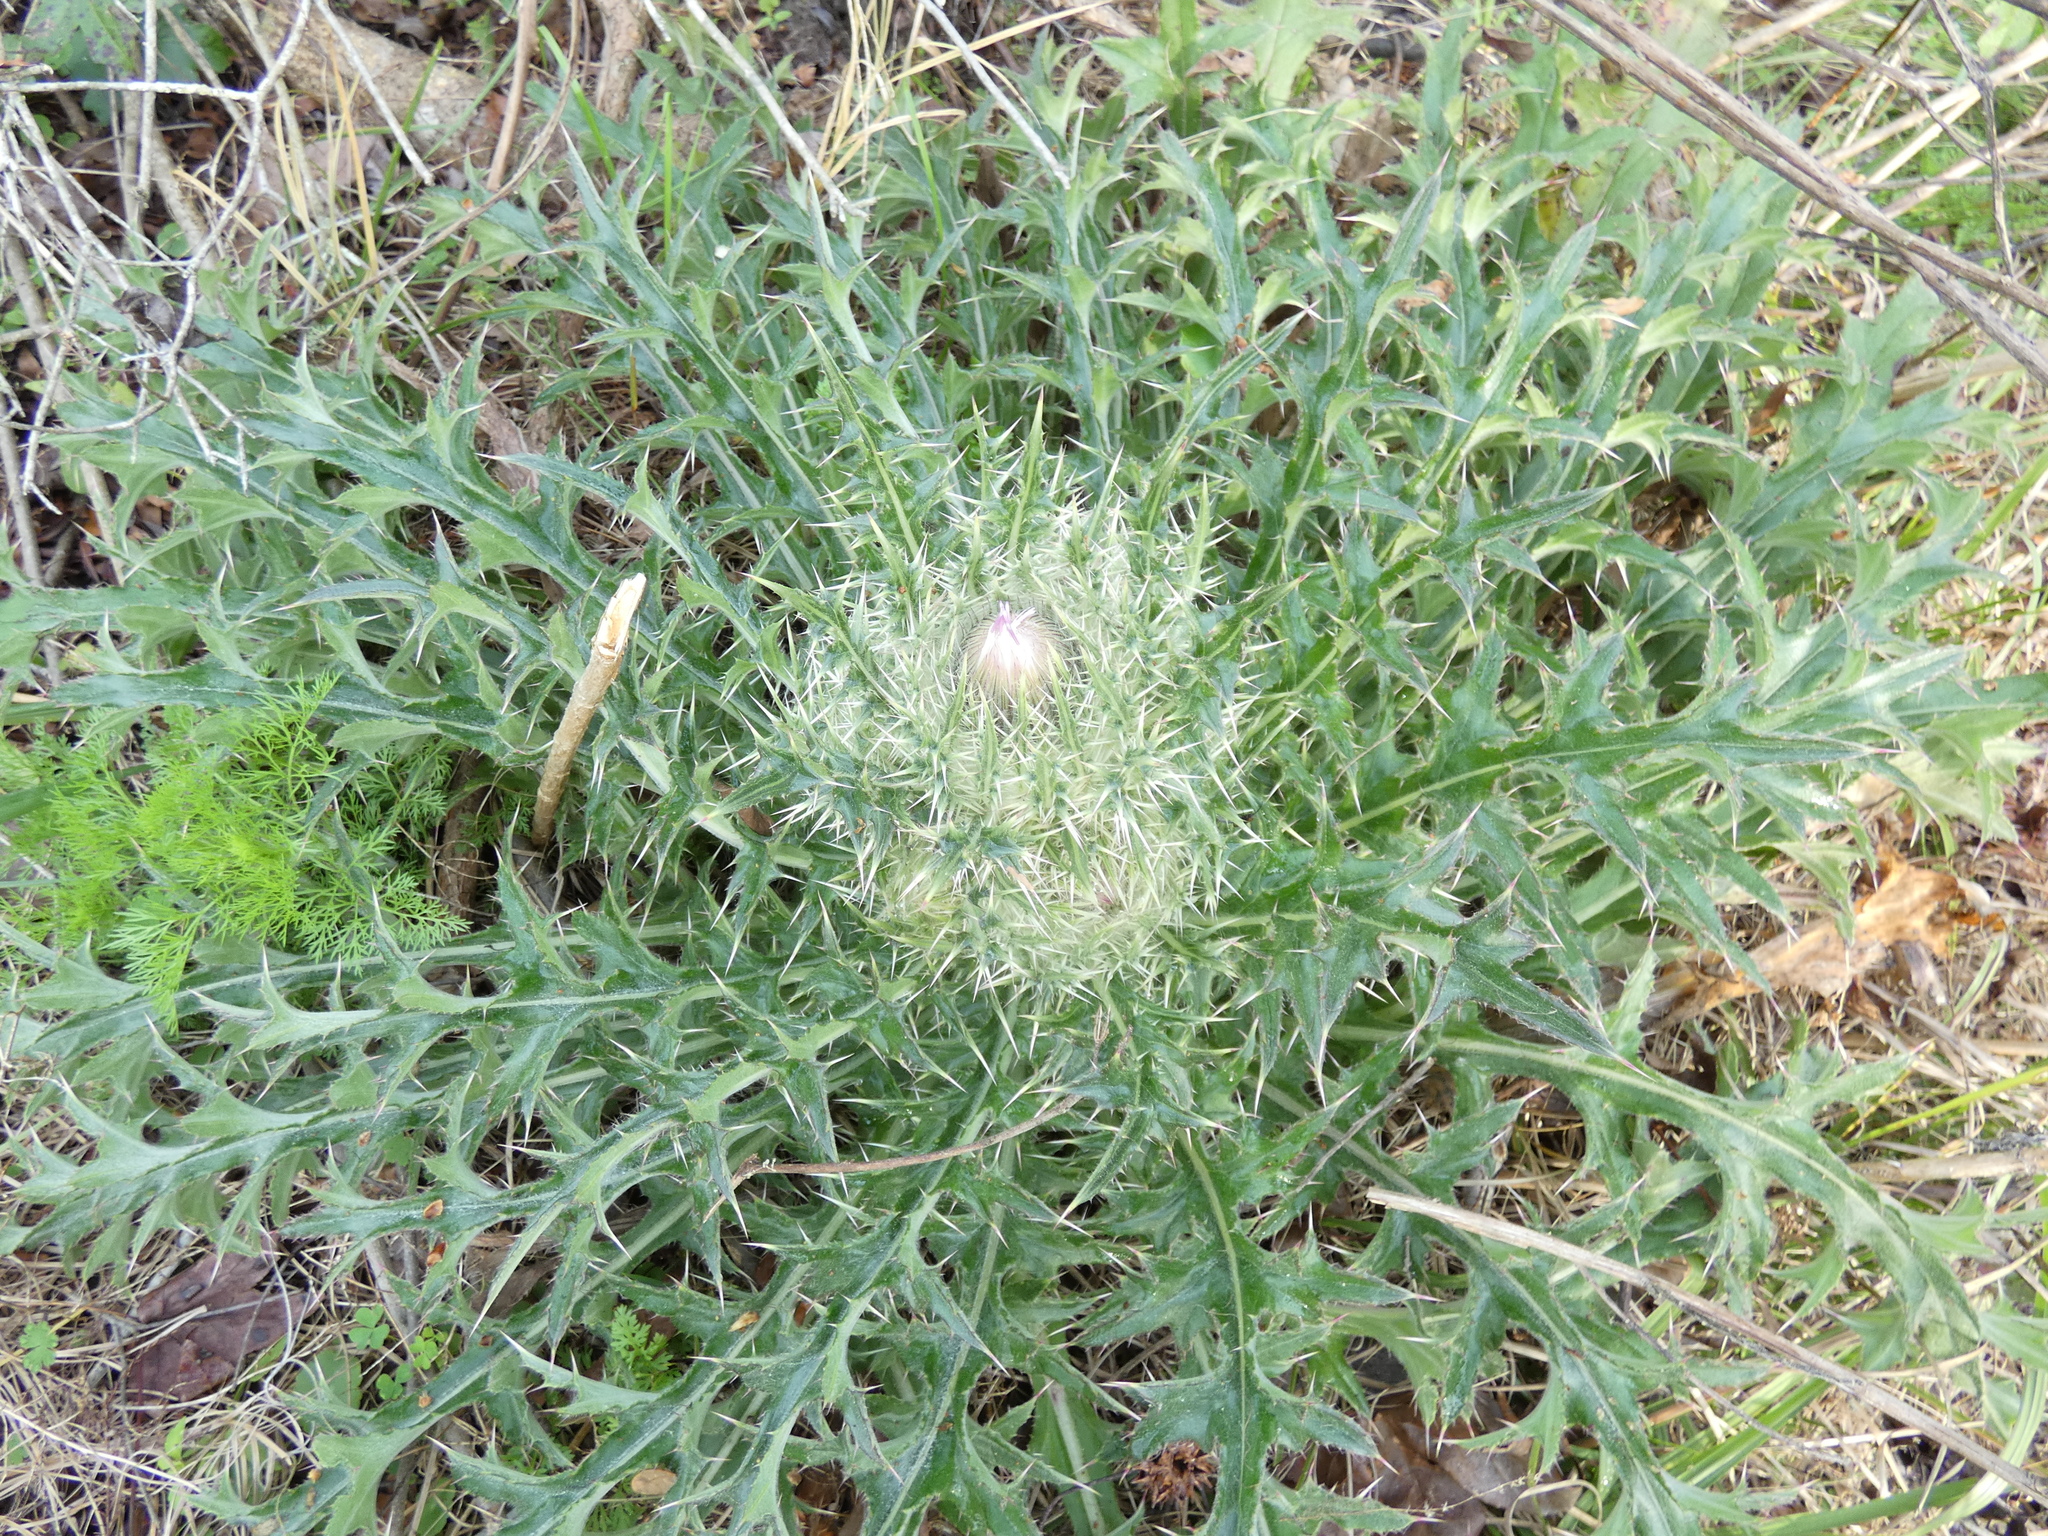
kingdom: Plantae
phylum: Tracheophyta
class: Magnoliopsida
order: Asterales
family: Asteraceae
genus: Cirsium
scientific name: Cirsium horridulum
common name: Bristly thistle
